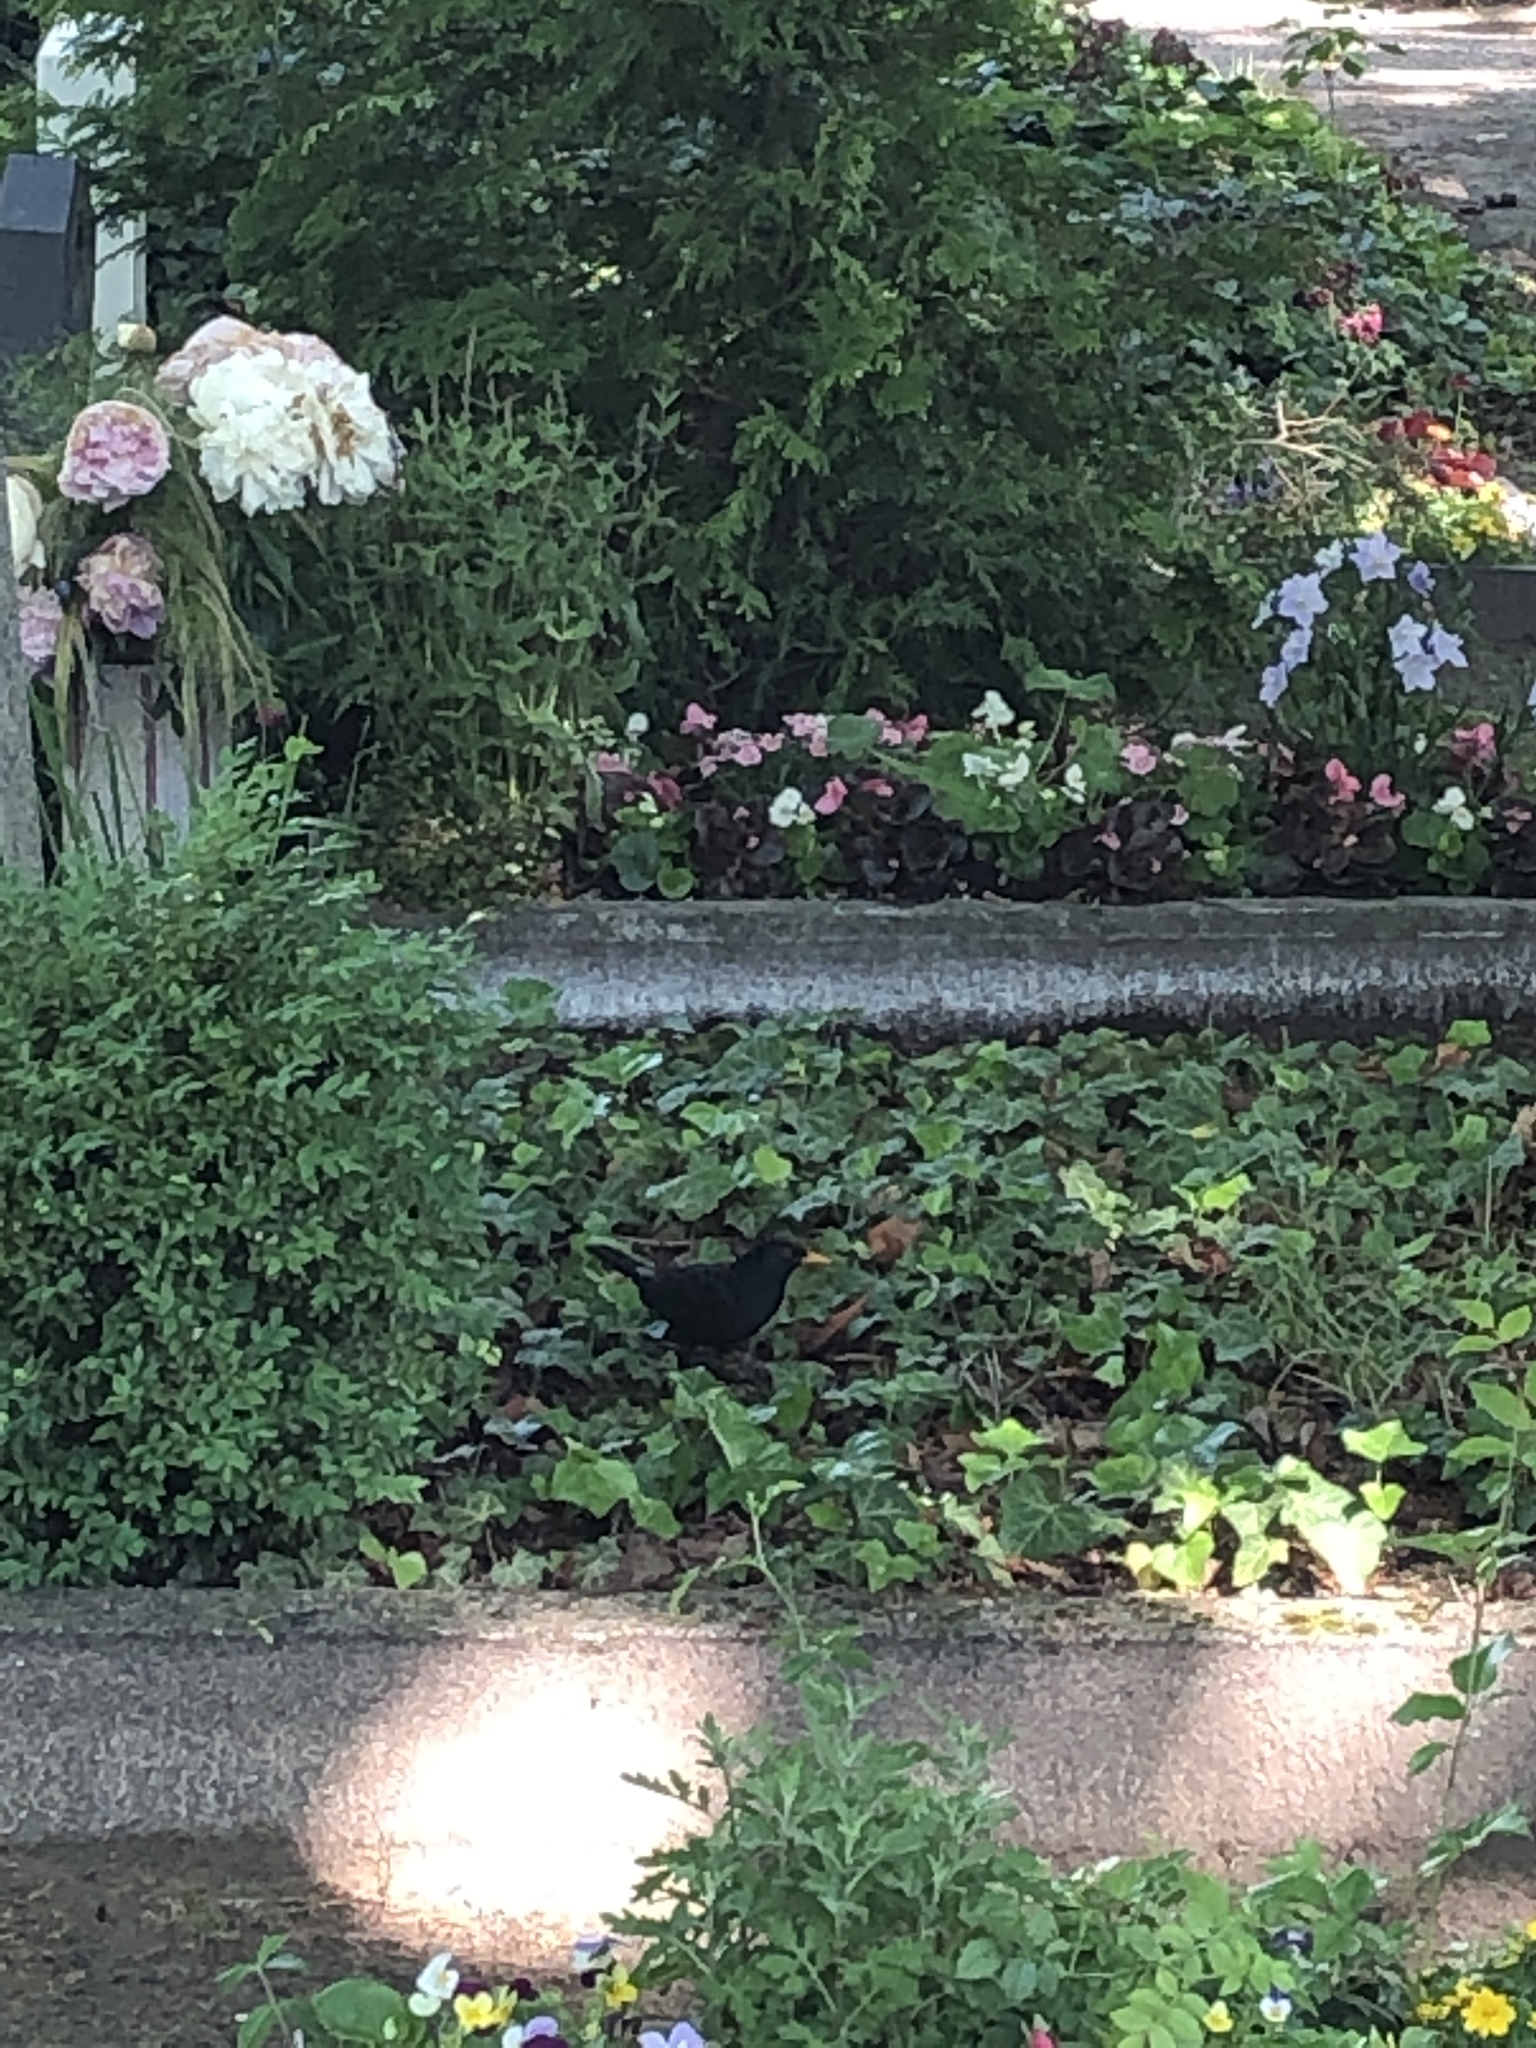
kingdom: Animalia
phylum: Chordata
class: Aves
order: Passeriformes
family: Turdidae
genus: Turdus
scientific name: Turdus merula
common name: Common blackbird
